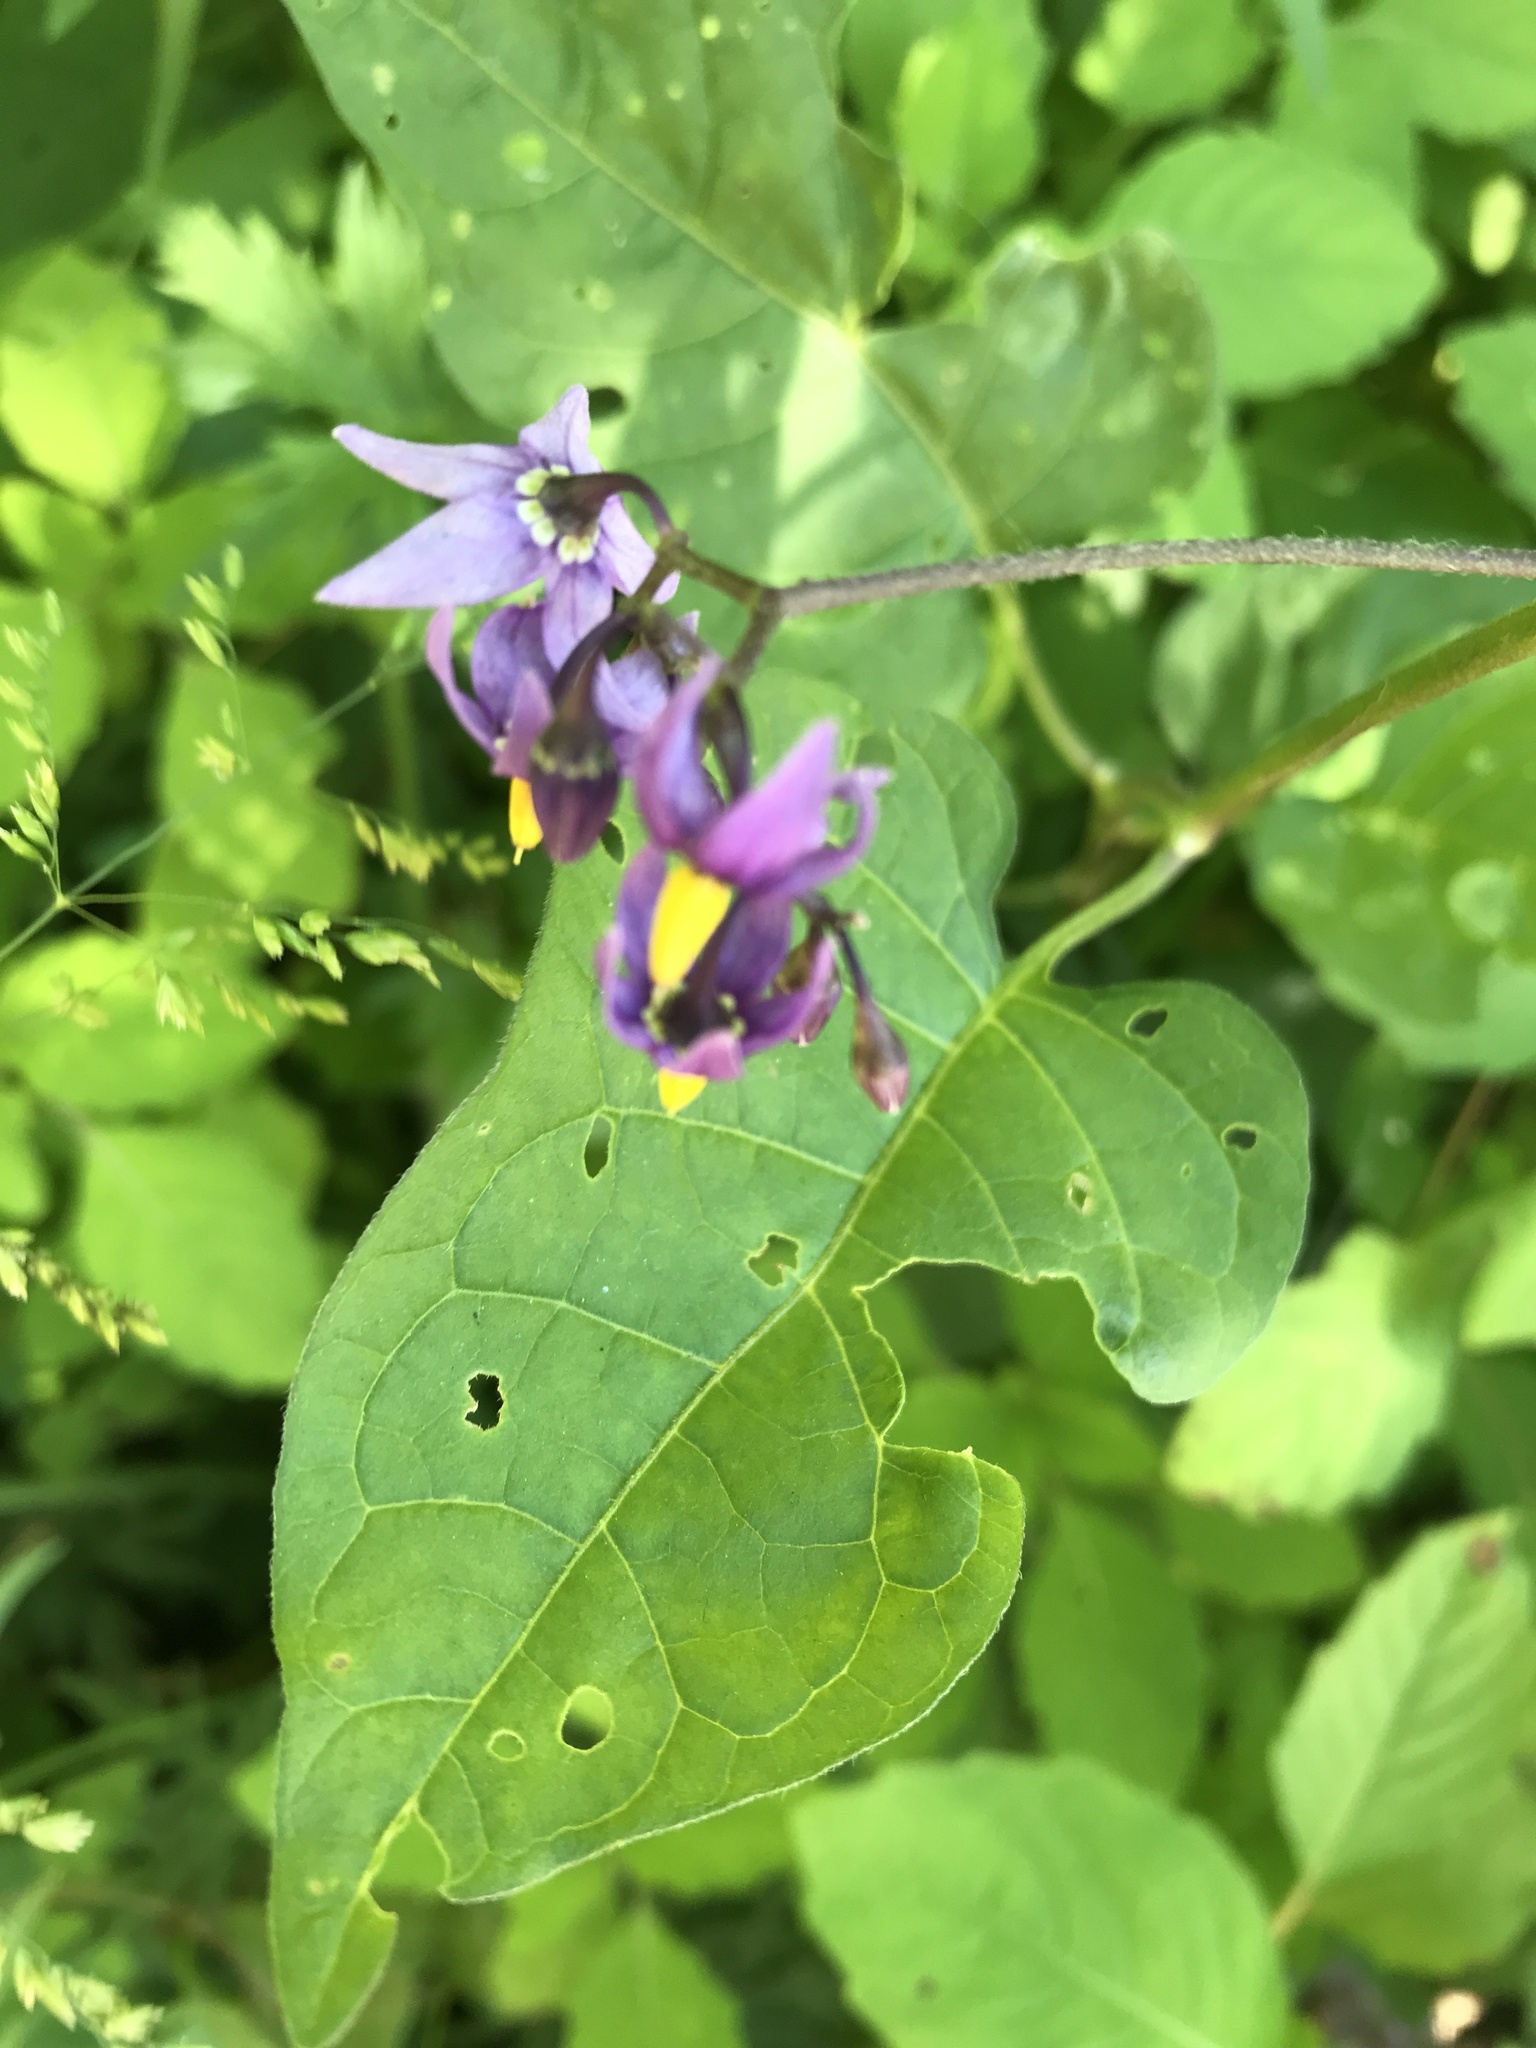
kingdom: Plantae
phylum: Tracheophyta
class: Magnoliopsida
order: Solanales
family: Solanaceae
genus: Solanum
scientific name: Solanum dulcamara
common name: Climbing nightshade
